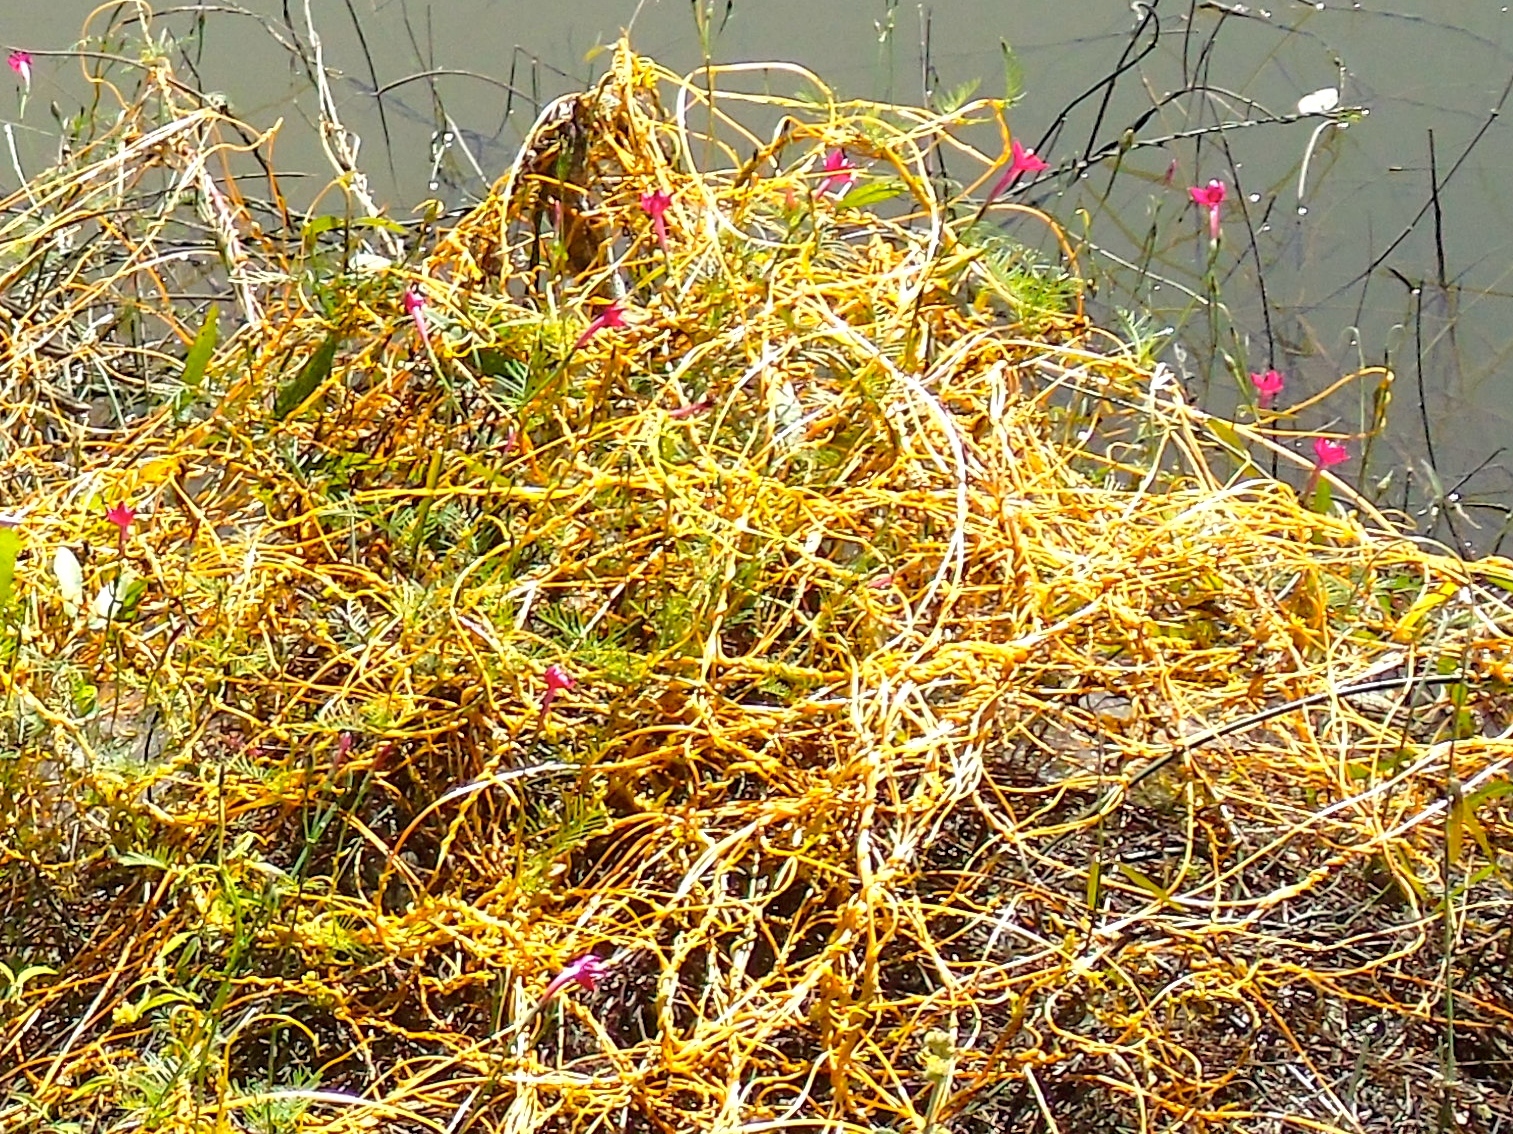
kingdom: Plantae
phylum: Tracheophyta
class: Magnoliopsida
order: Solanales
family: Convolvulaceae
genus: Cuscuta
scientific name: Cuscuta
